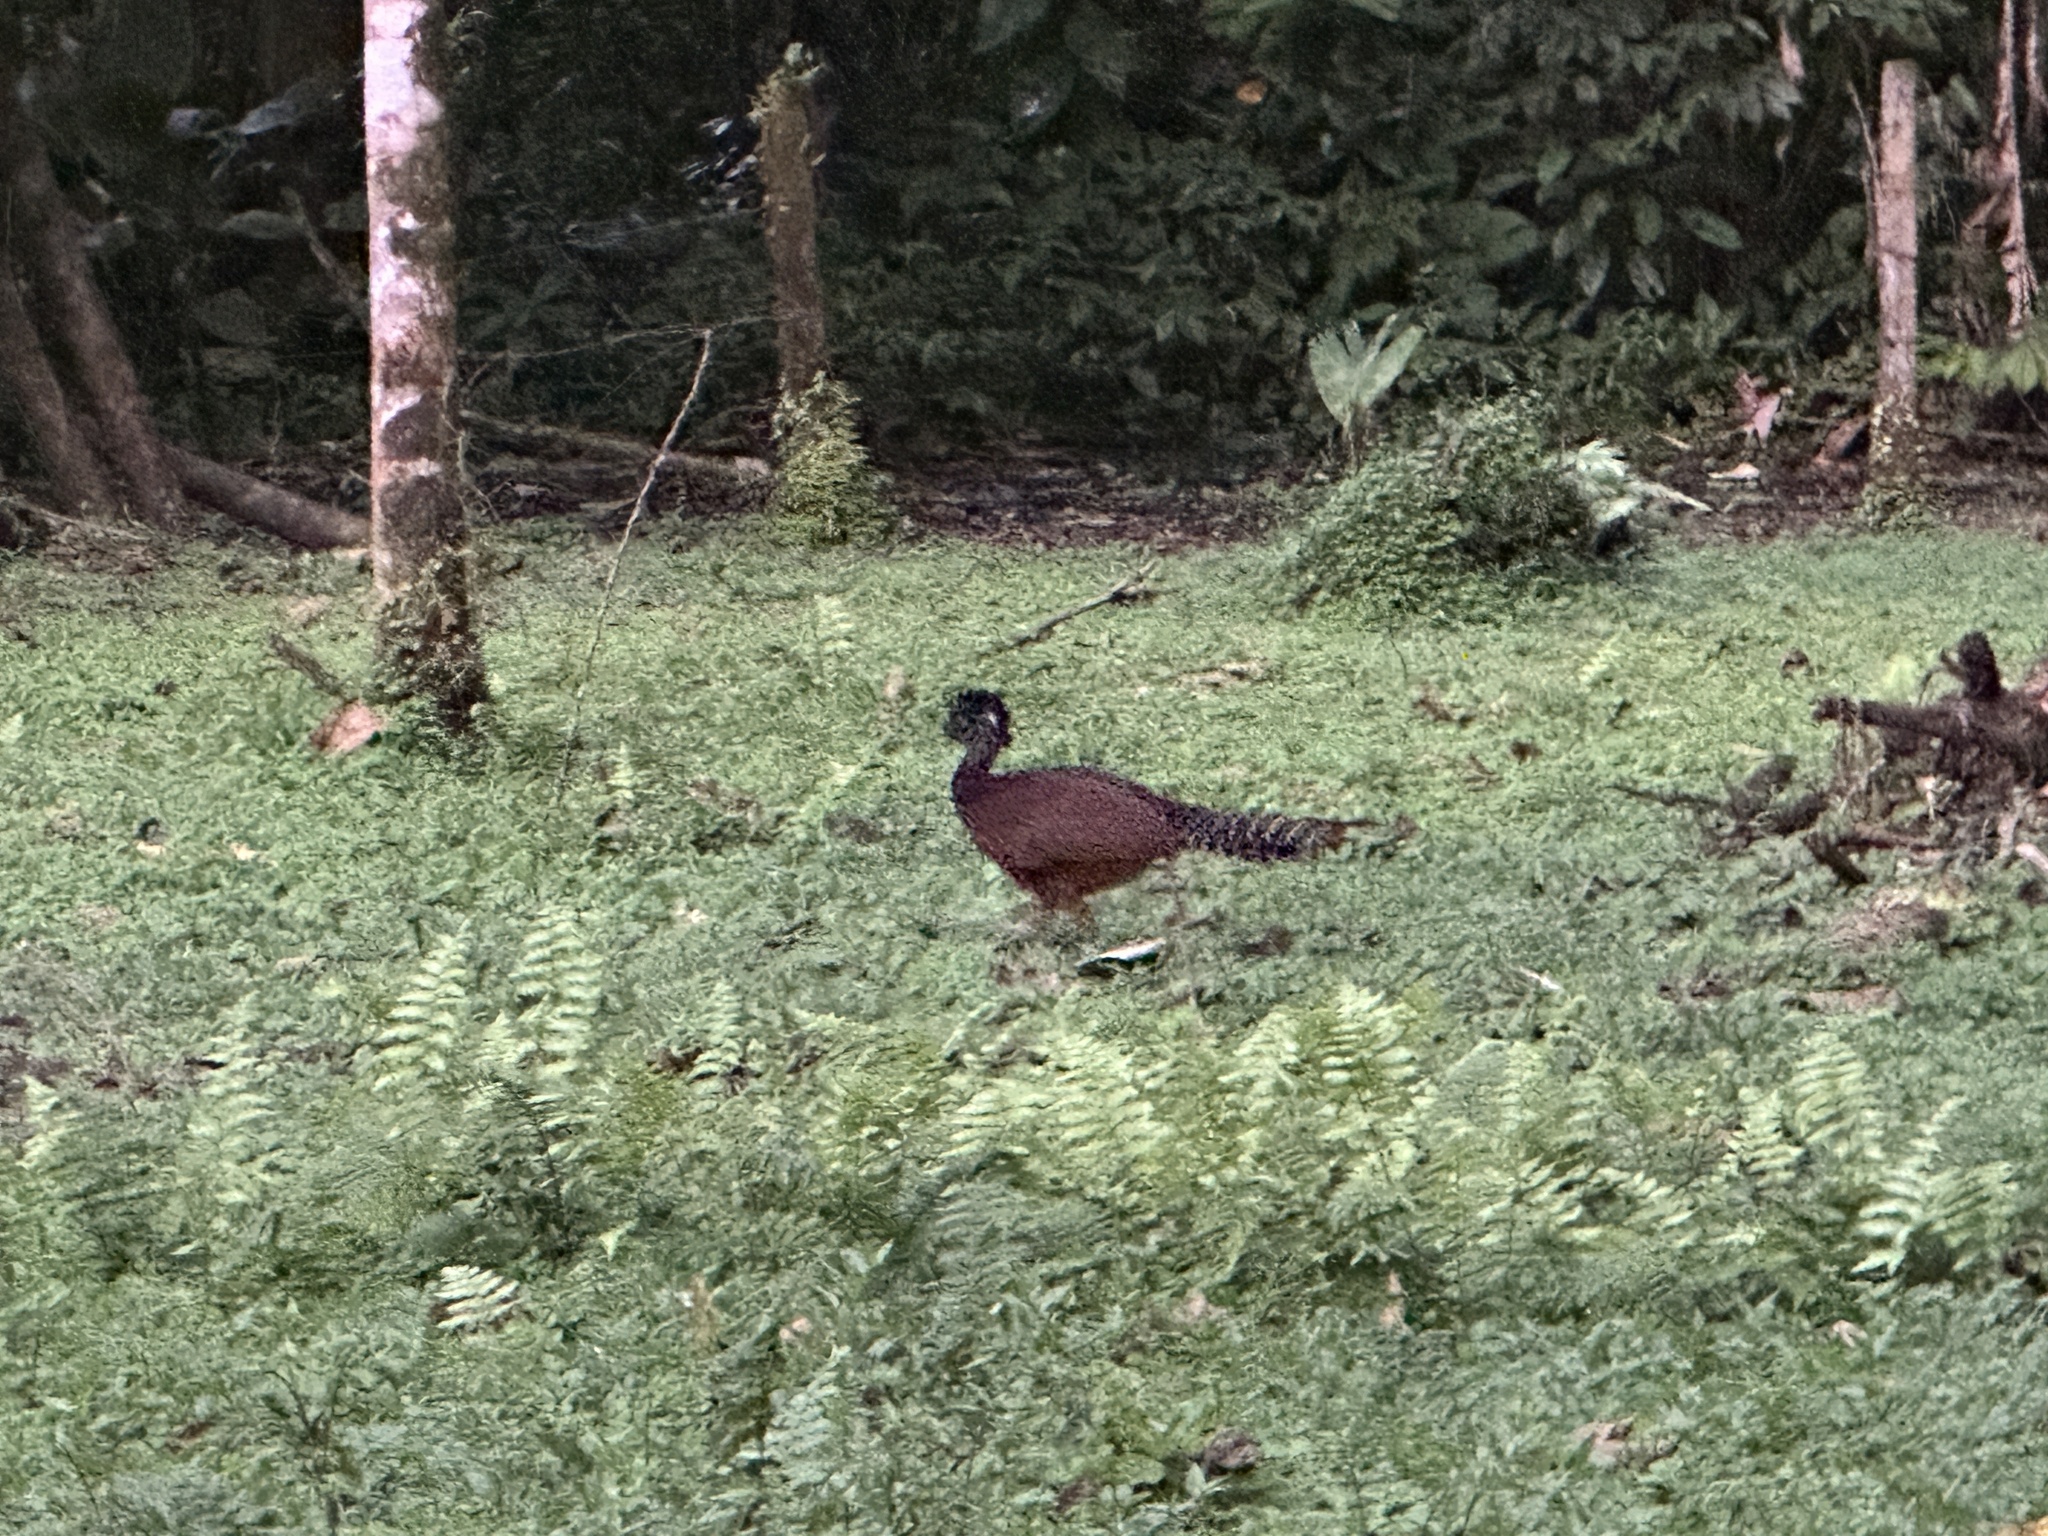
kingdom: Animalia
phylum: Chordata
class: Aves
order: Galliformes
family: Cracidae
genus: Crax
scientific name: Crax rubra
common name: Great curassow
